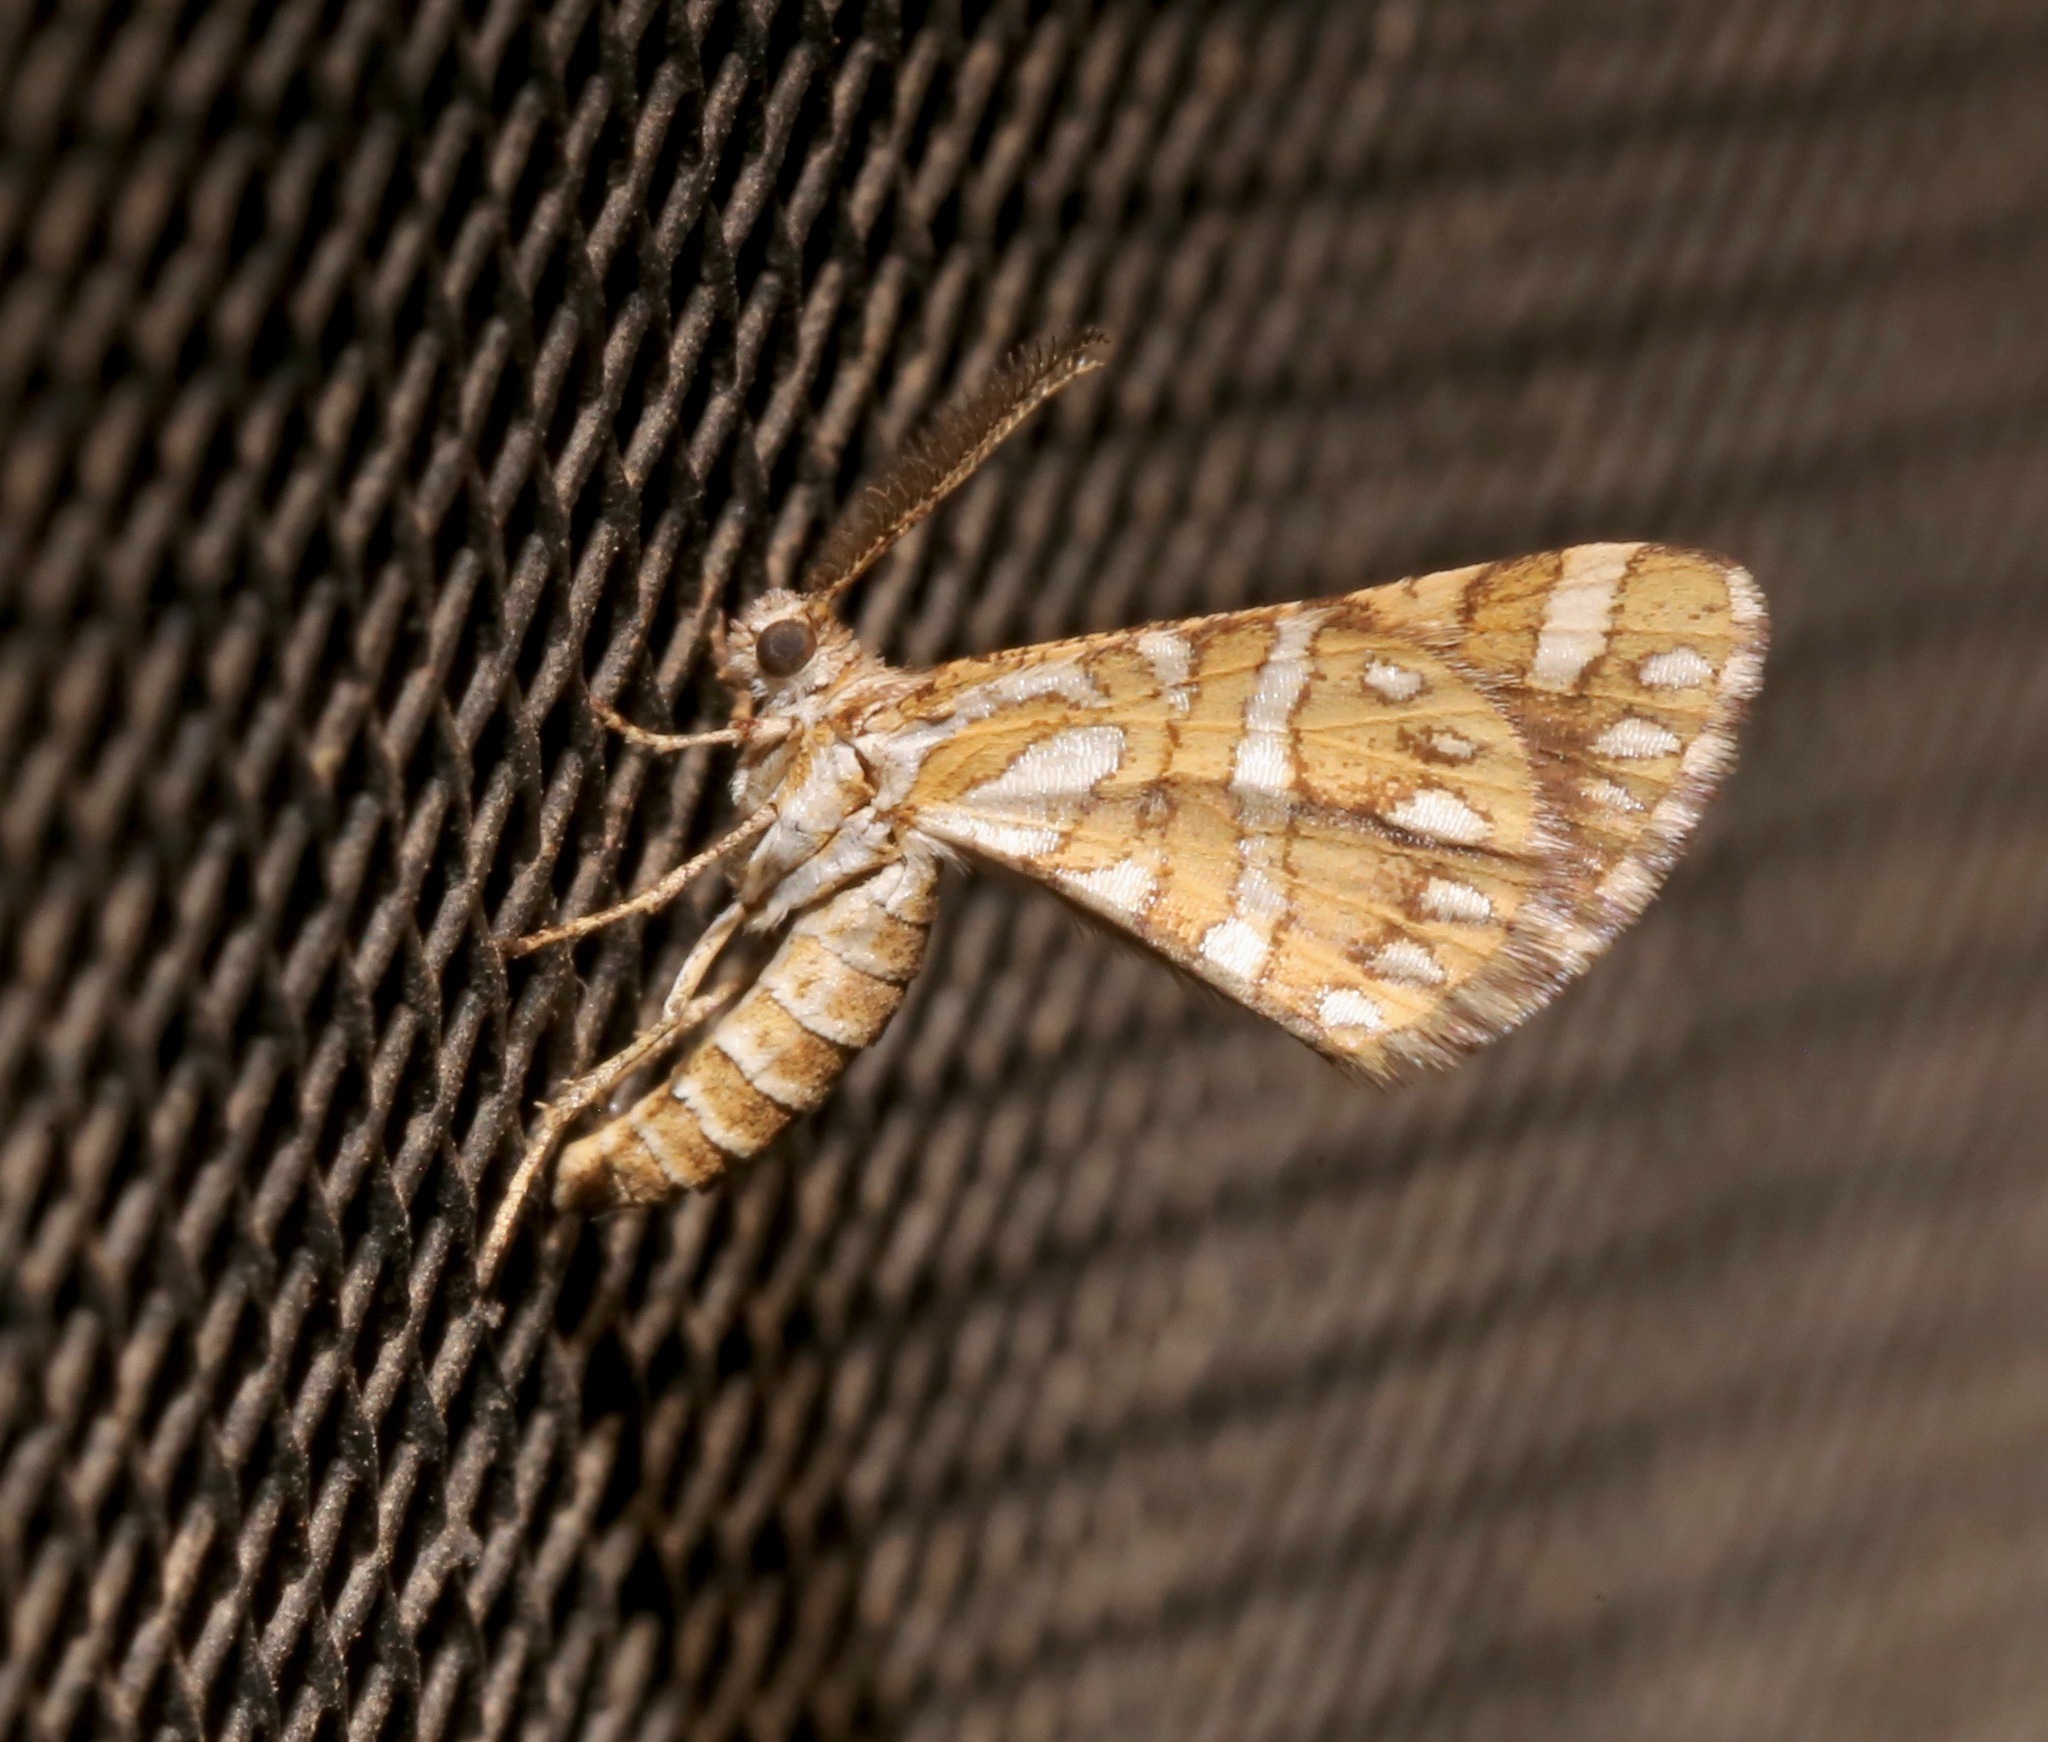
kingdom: Animalia
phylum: Arthropoda
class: Insecta
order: Lepidoptera
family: Geometridae
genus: Narraga
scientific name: Narraga fimetaria
